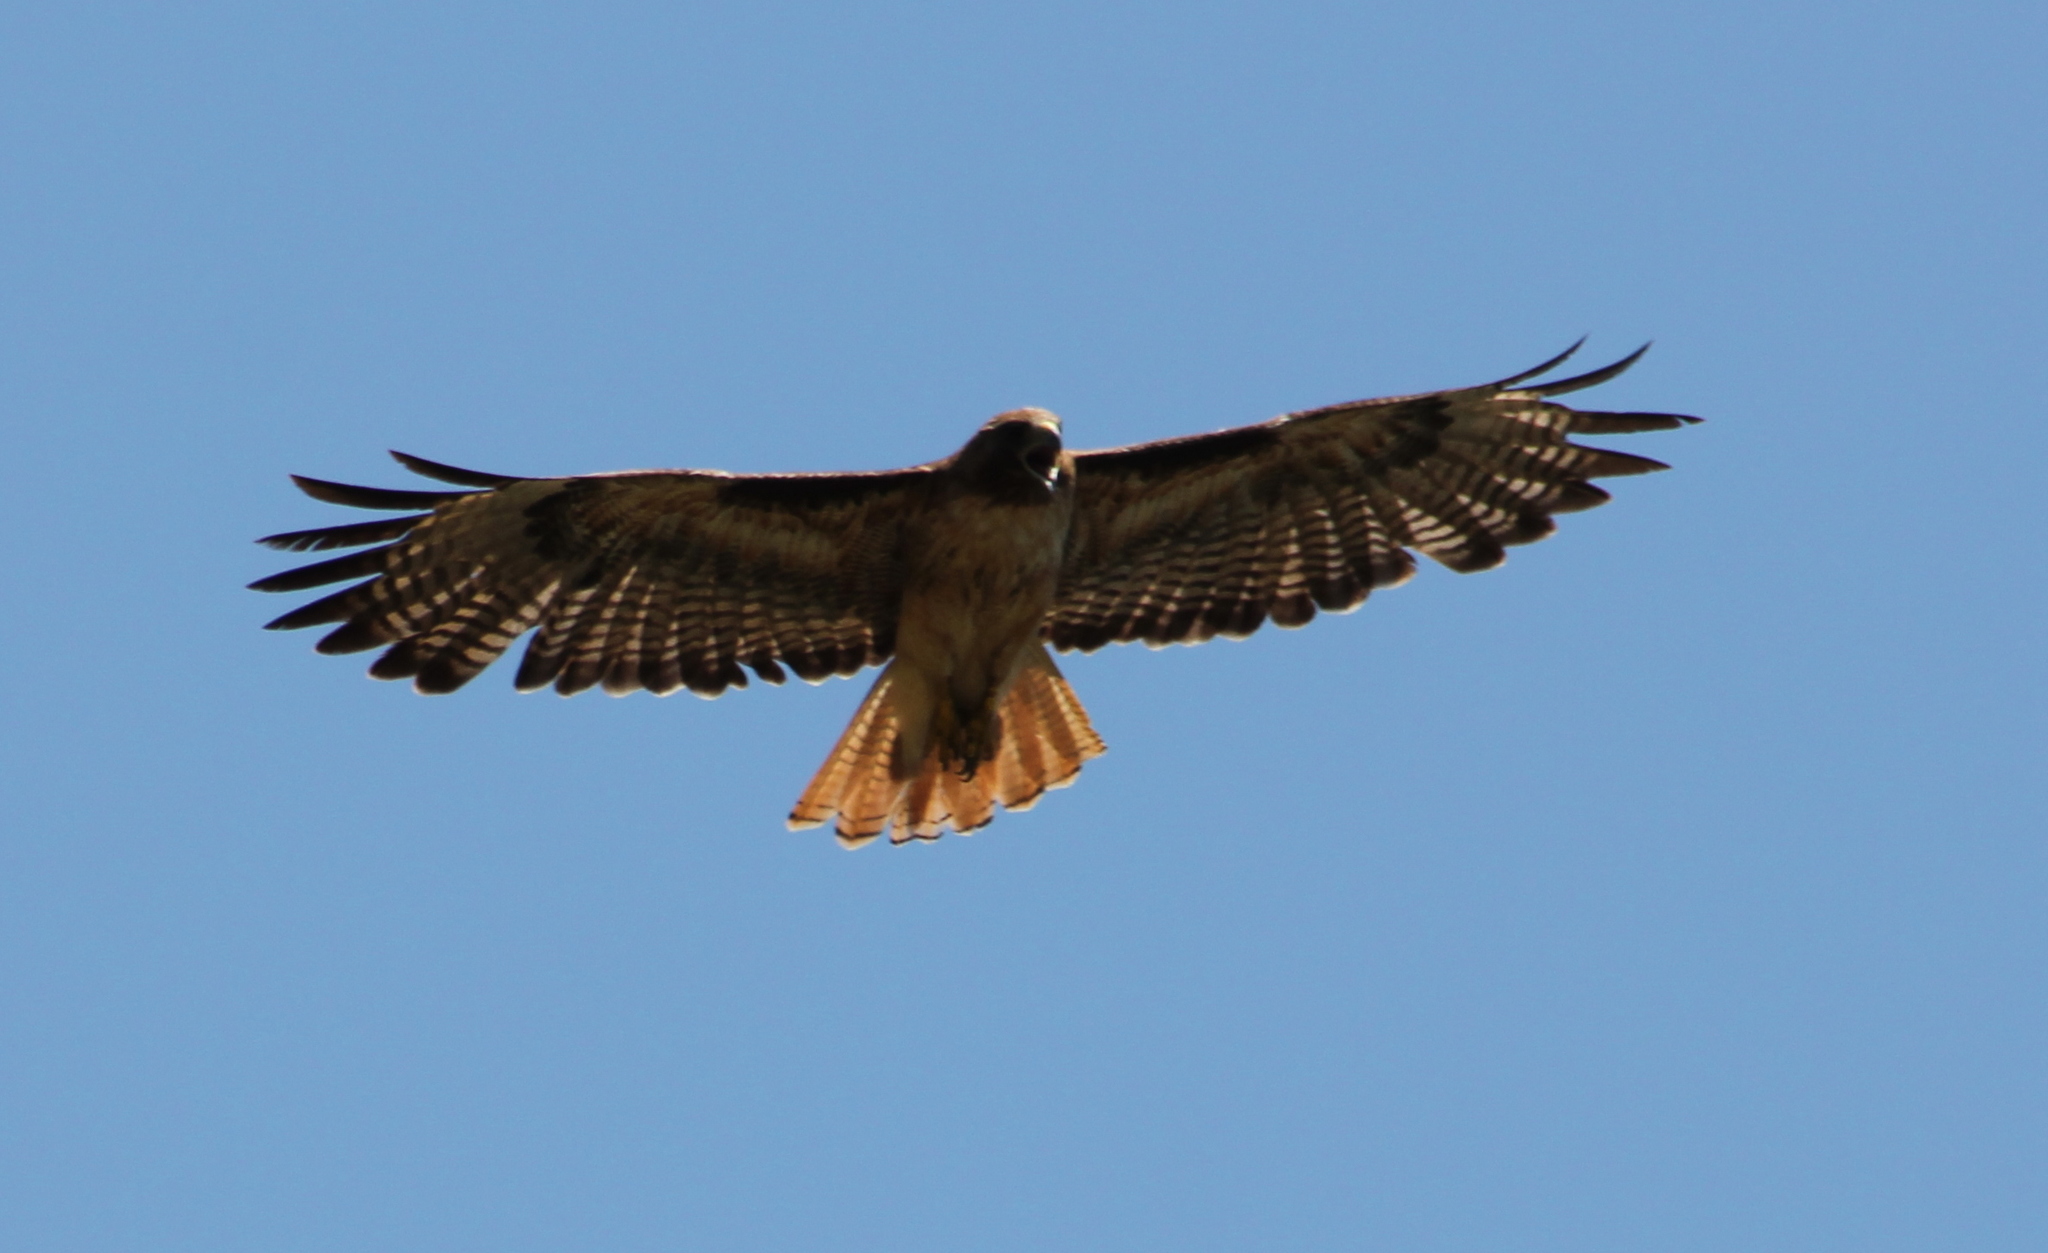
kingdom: Animalia
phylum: Chordata
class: Aves
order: Accipitriformes
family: Accipitridae
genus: Buteo
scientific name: Buteo jamaicensis
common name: Red-tailed hawk
